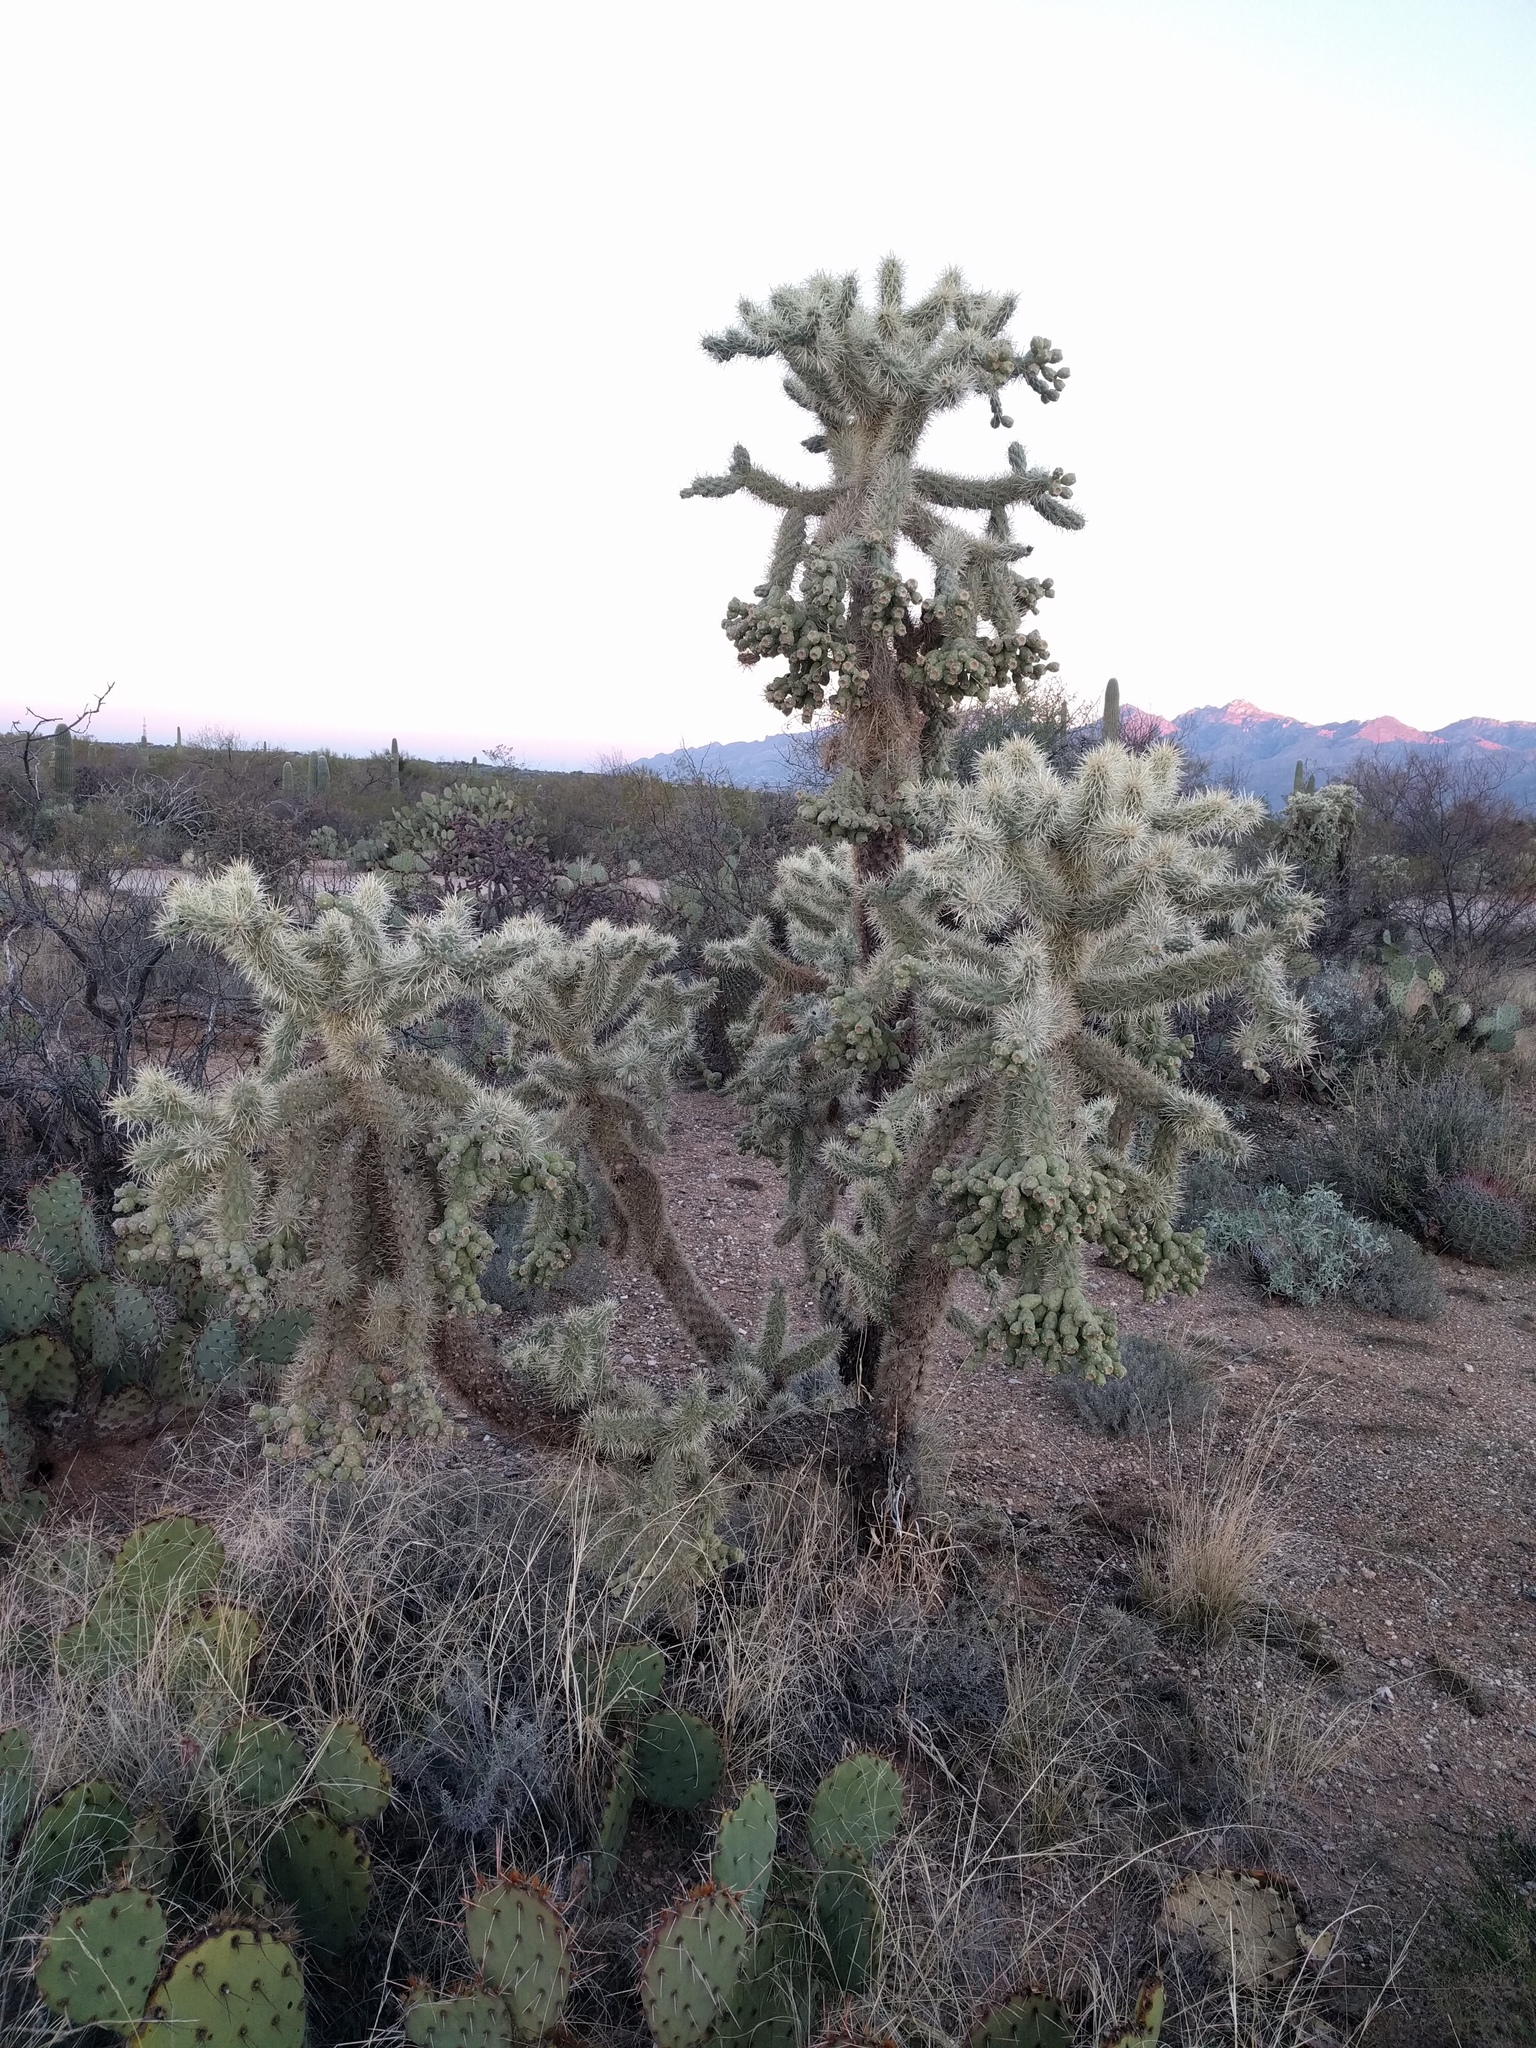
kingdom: Plantae
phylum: Tracheophyta
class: Magnoliopsida
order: Caryophyllales
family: Cactaceae
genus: Cylindropuntia
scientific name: Cylindropuntia fulgida
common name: Jumping cholla
